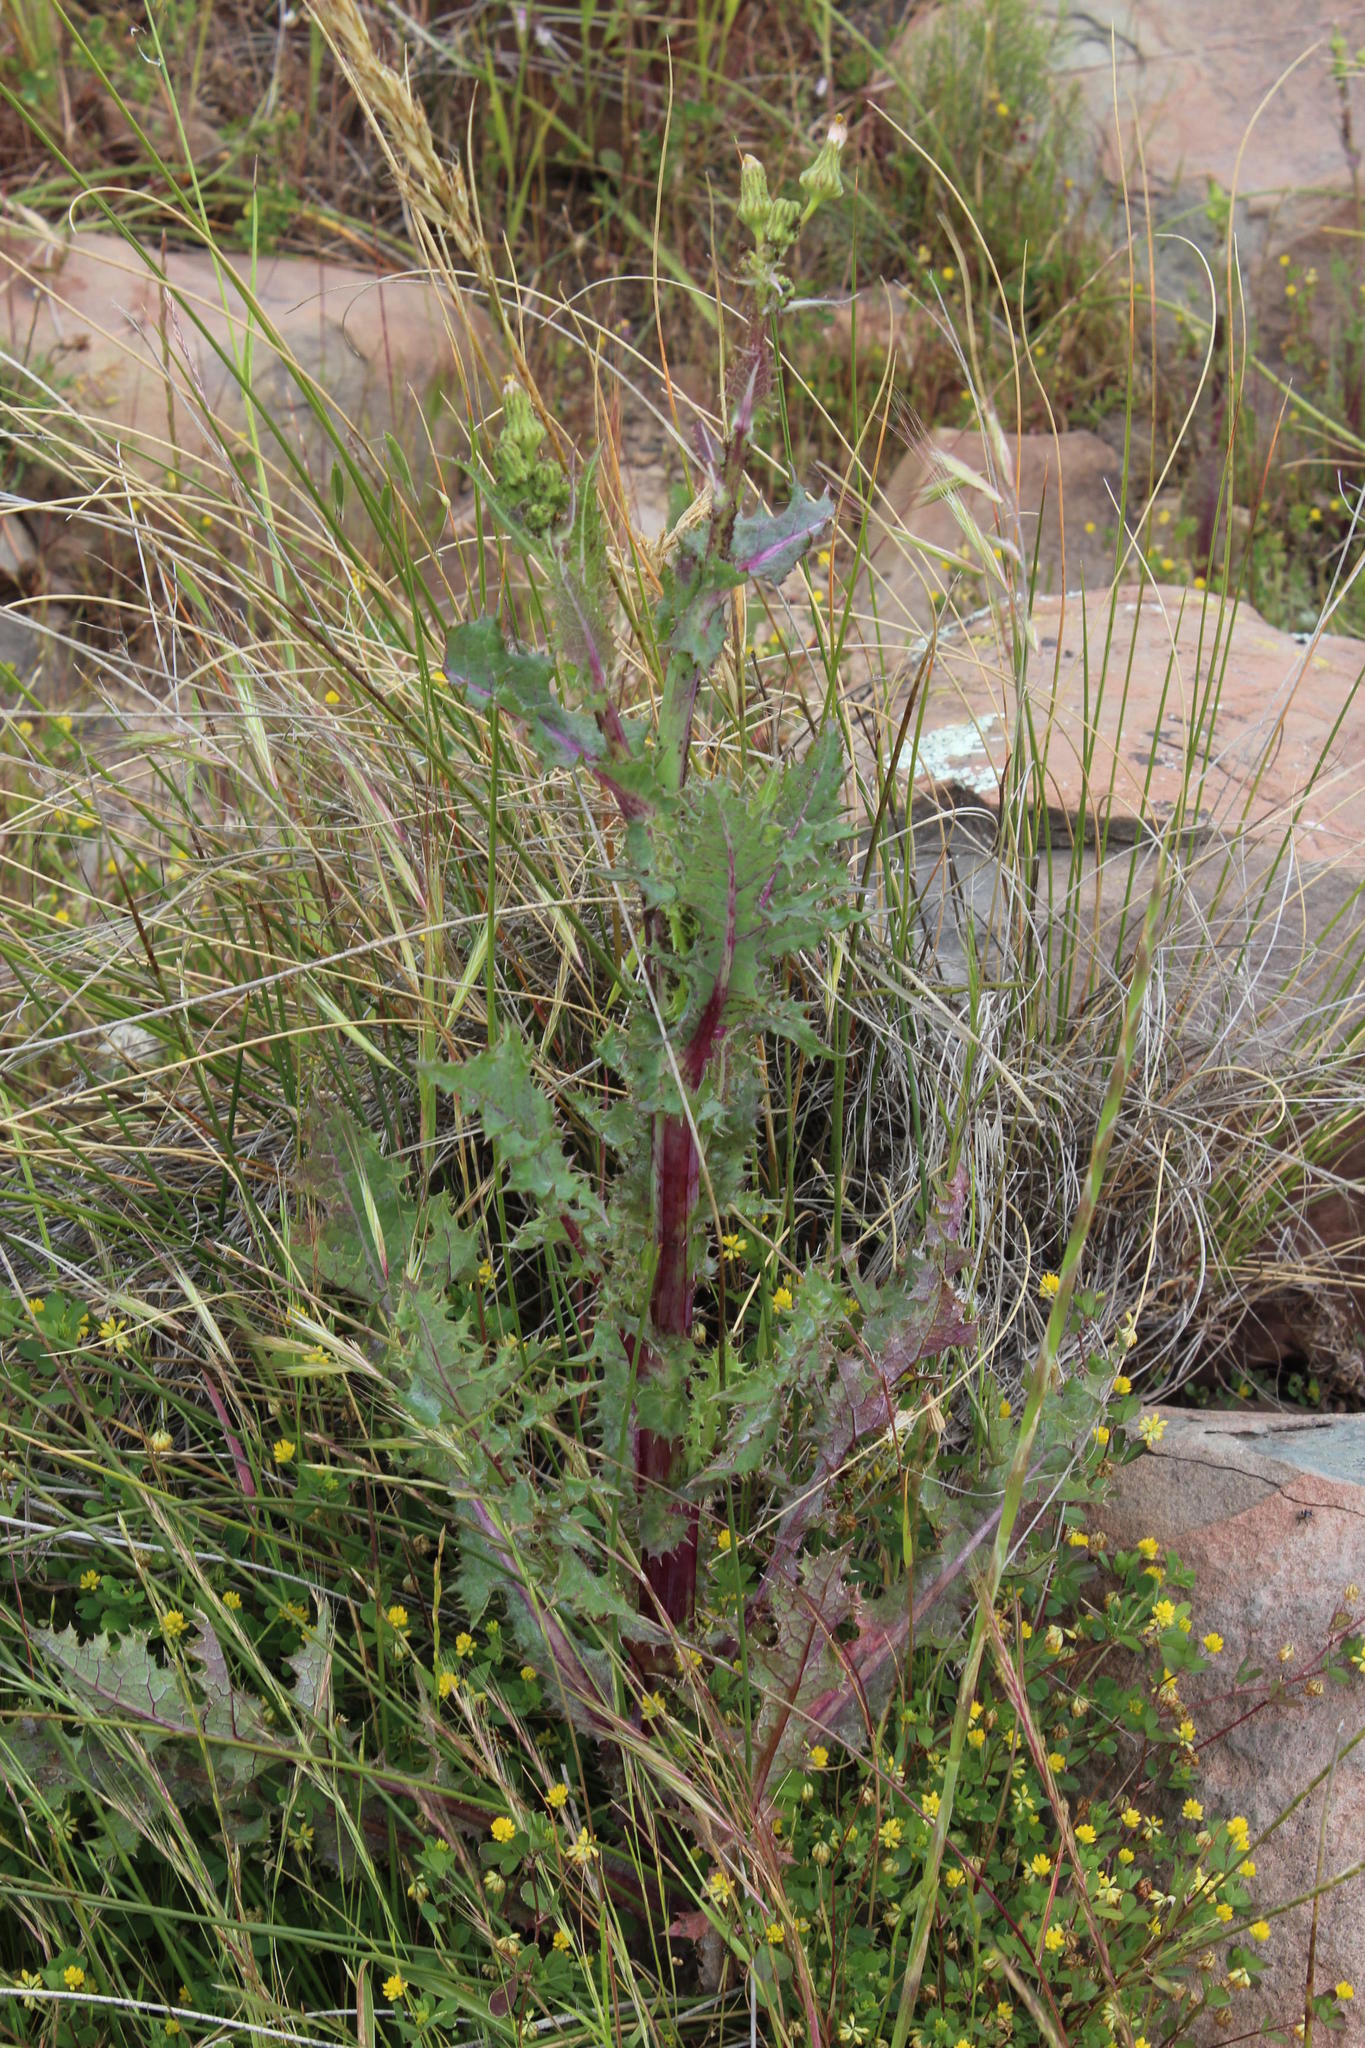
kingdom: Plantae
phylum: Tracheophyta
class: Magnoliopsida
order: Asterales
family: Asteraceae
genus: Sonchus
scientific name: Sonchus asper
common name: Prickly sow-thistle
